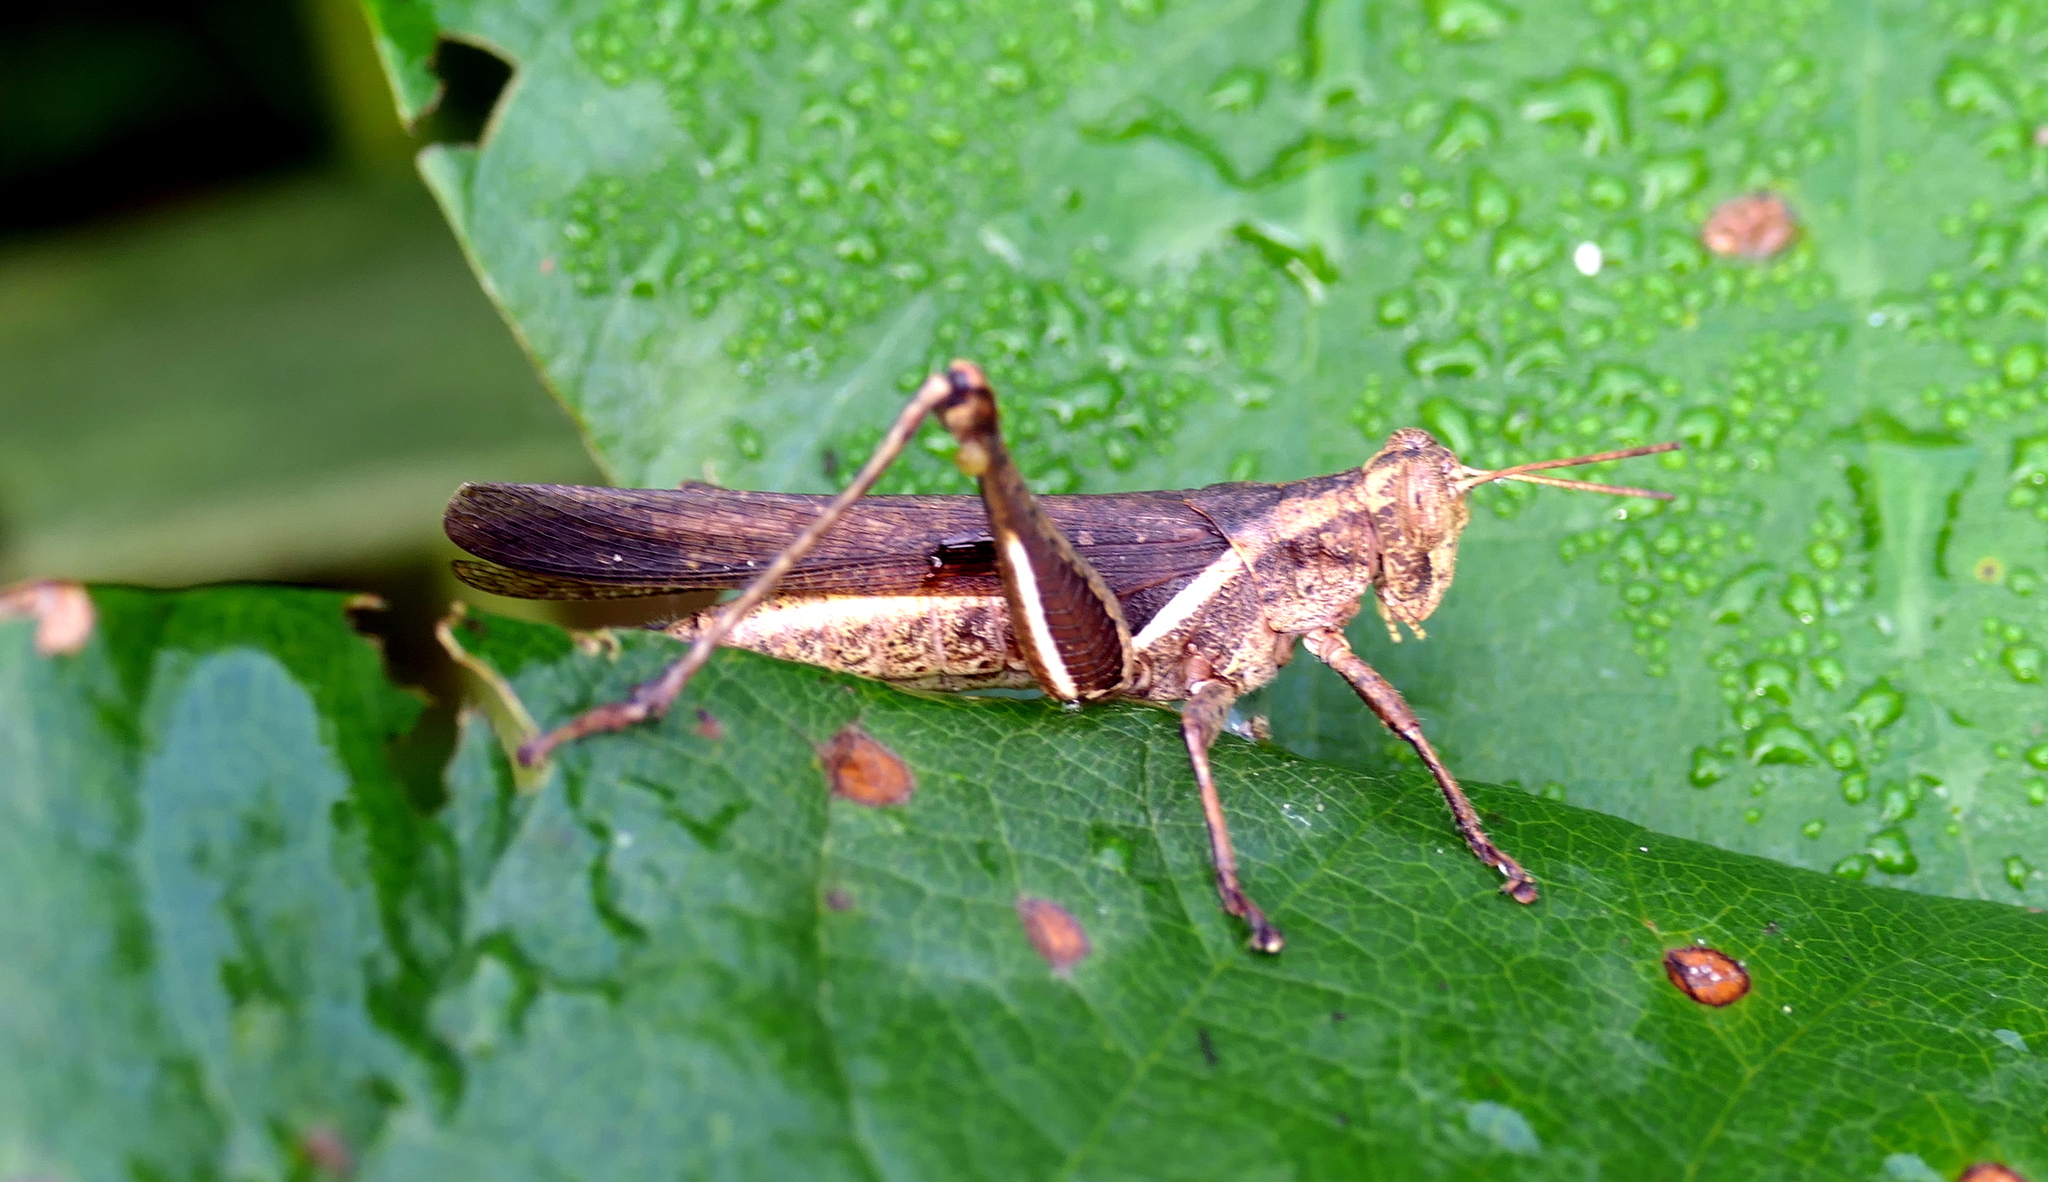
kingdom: Animalia
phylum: Arthropoda
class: Insecta
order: Orthoptera
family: Acrididae
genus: Abracris
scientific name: Abracris flavolineata
